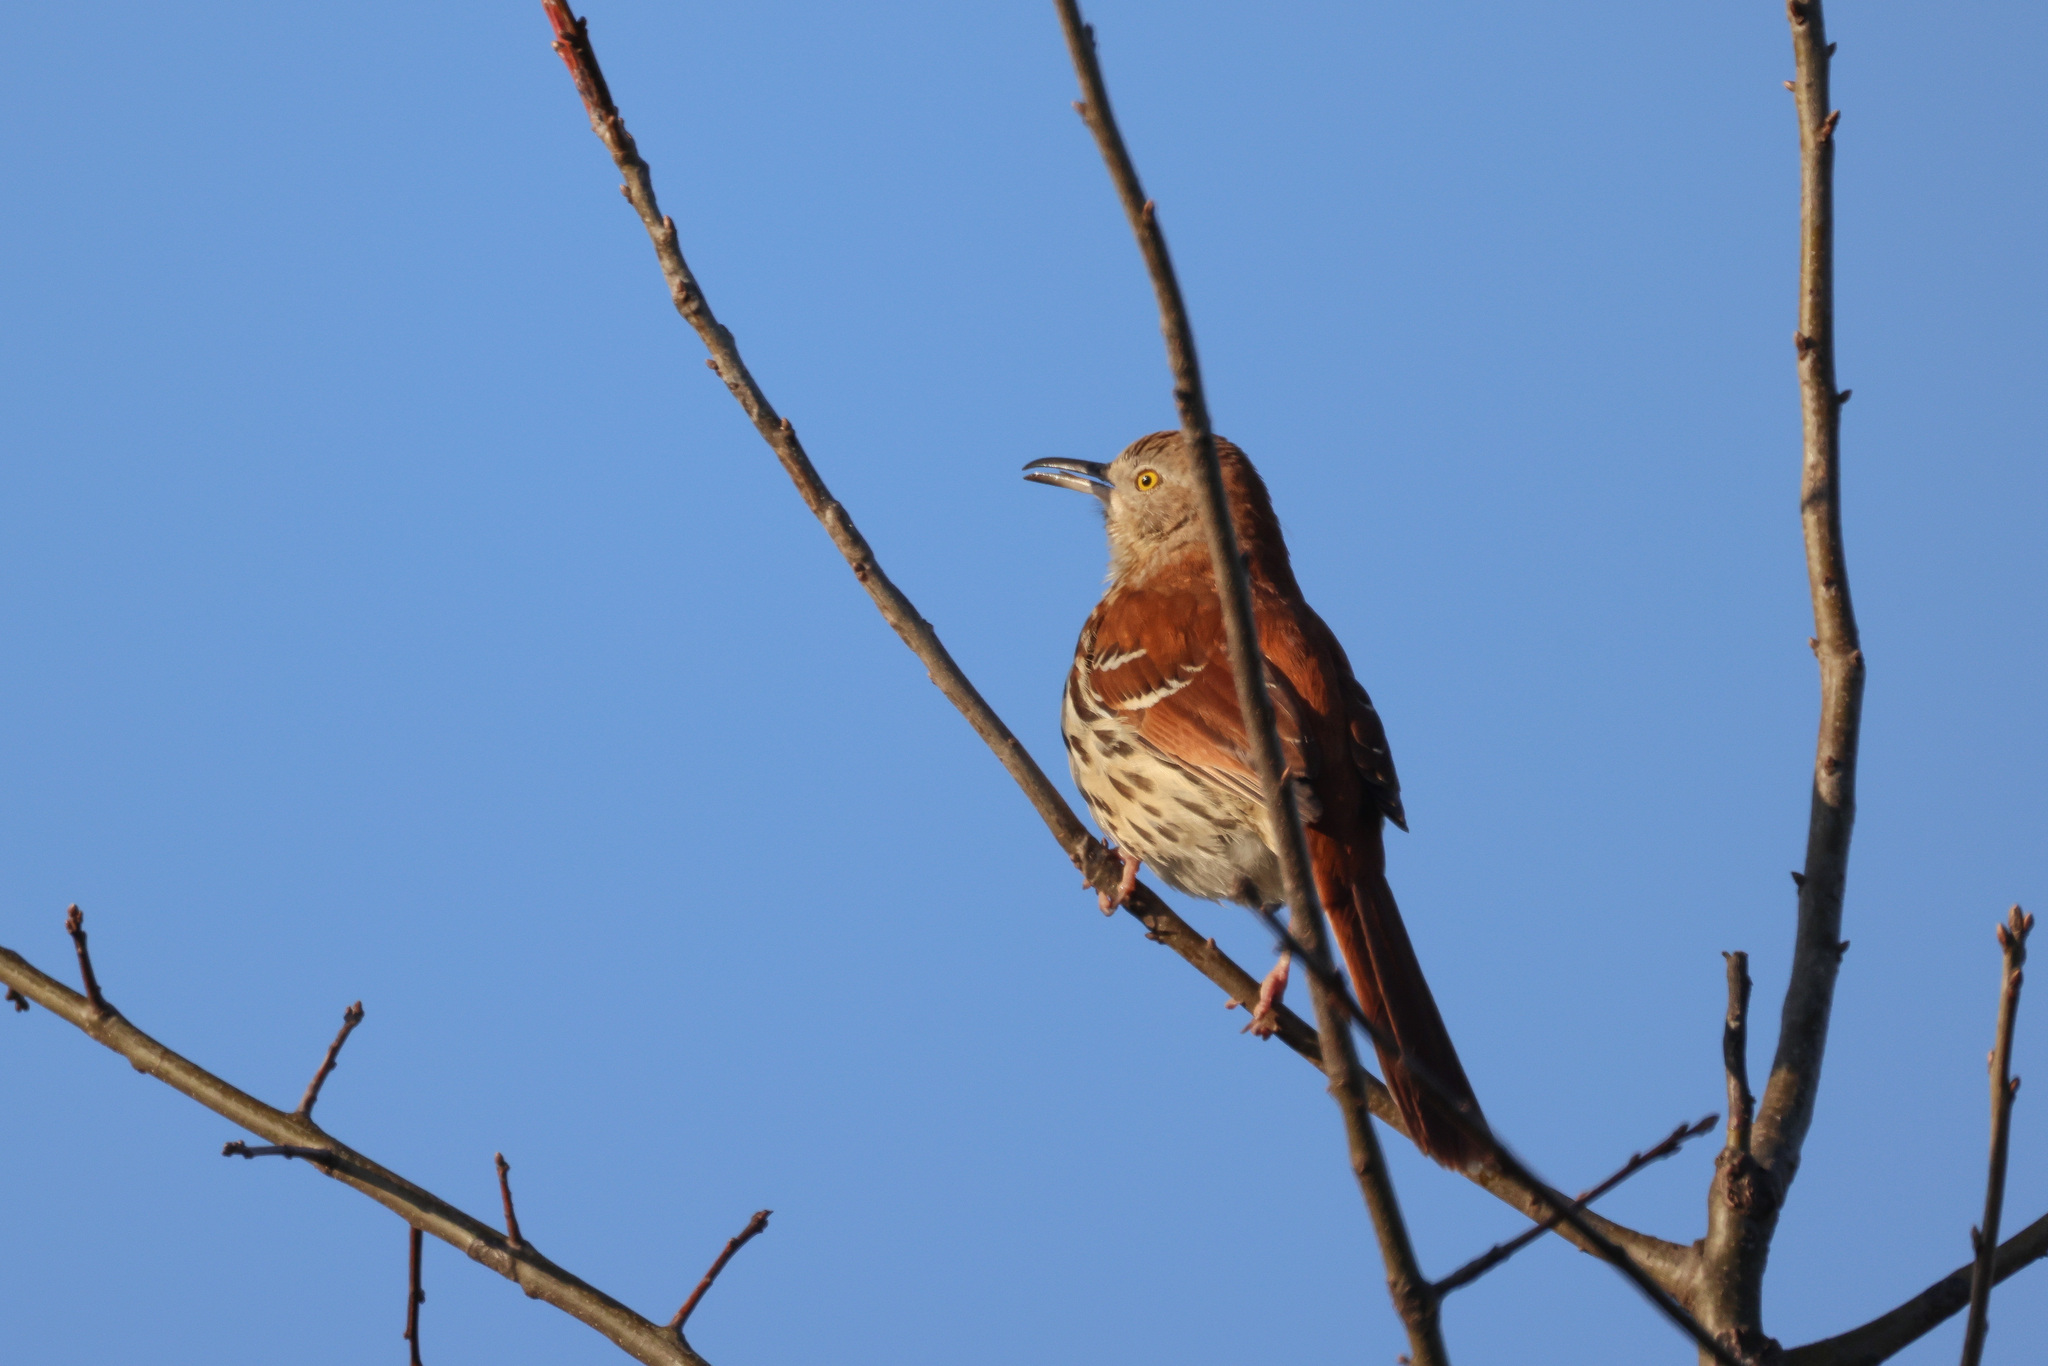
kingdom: Animalia
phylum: Chordata
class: Aves
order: Passeriformes
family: Mimidae
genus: Toxostoma
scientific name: Toxostoma rufum
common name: Brown thrasher
